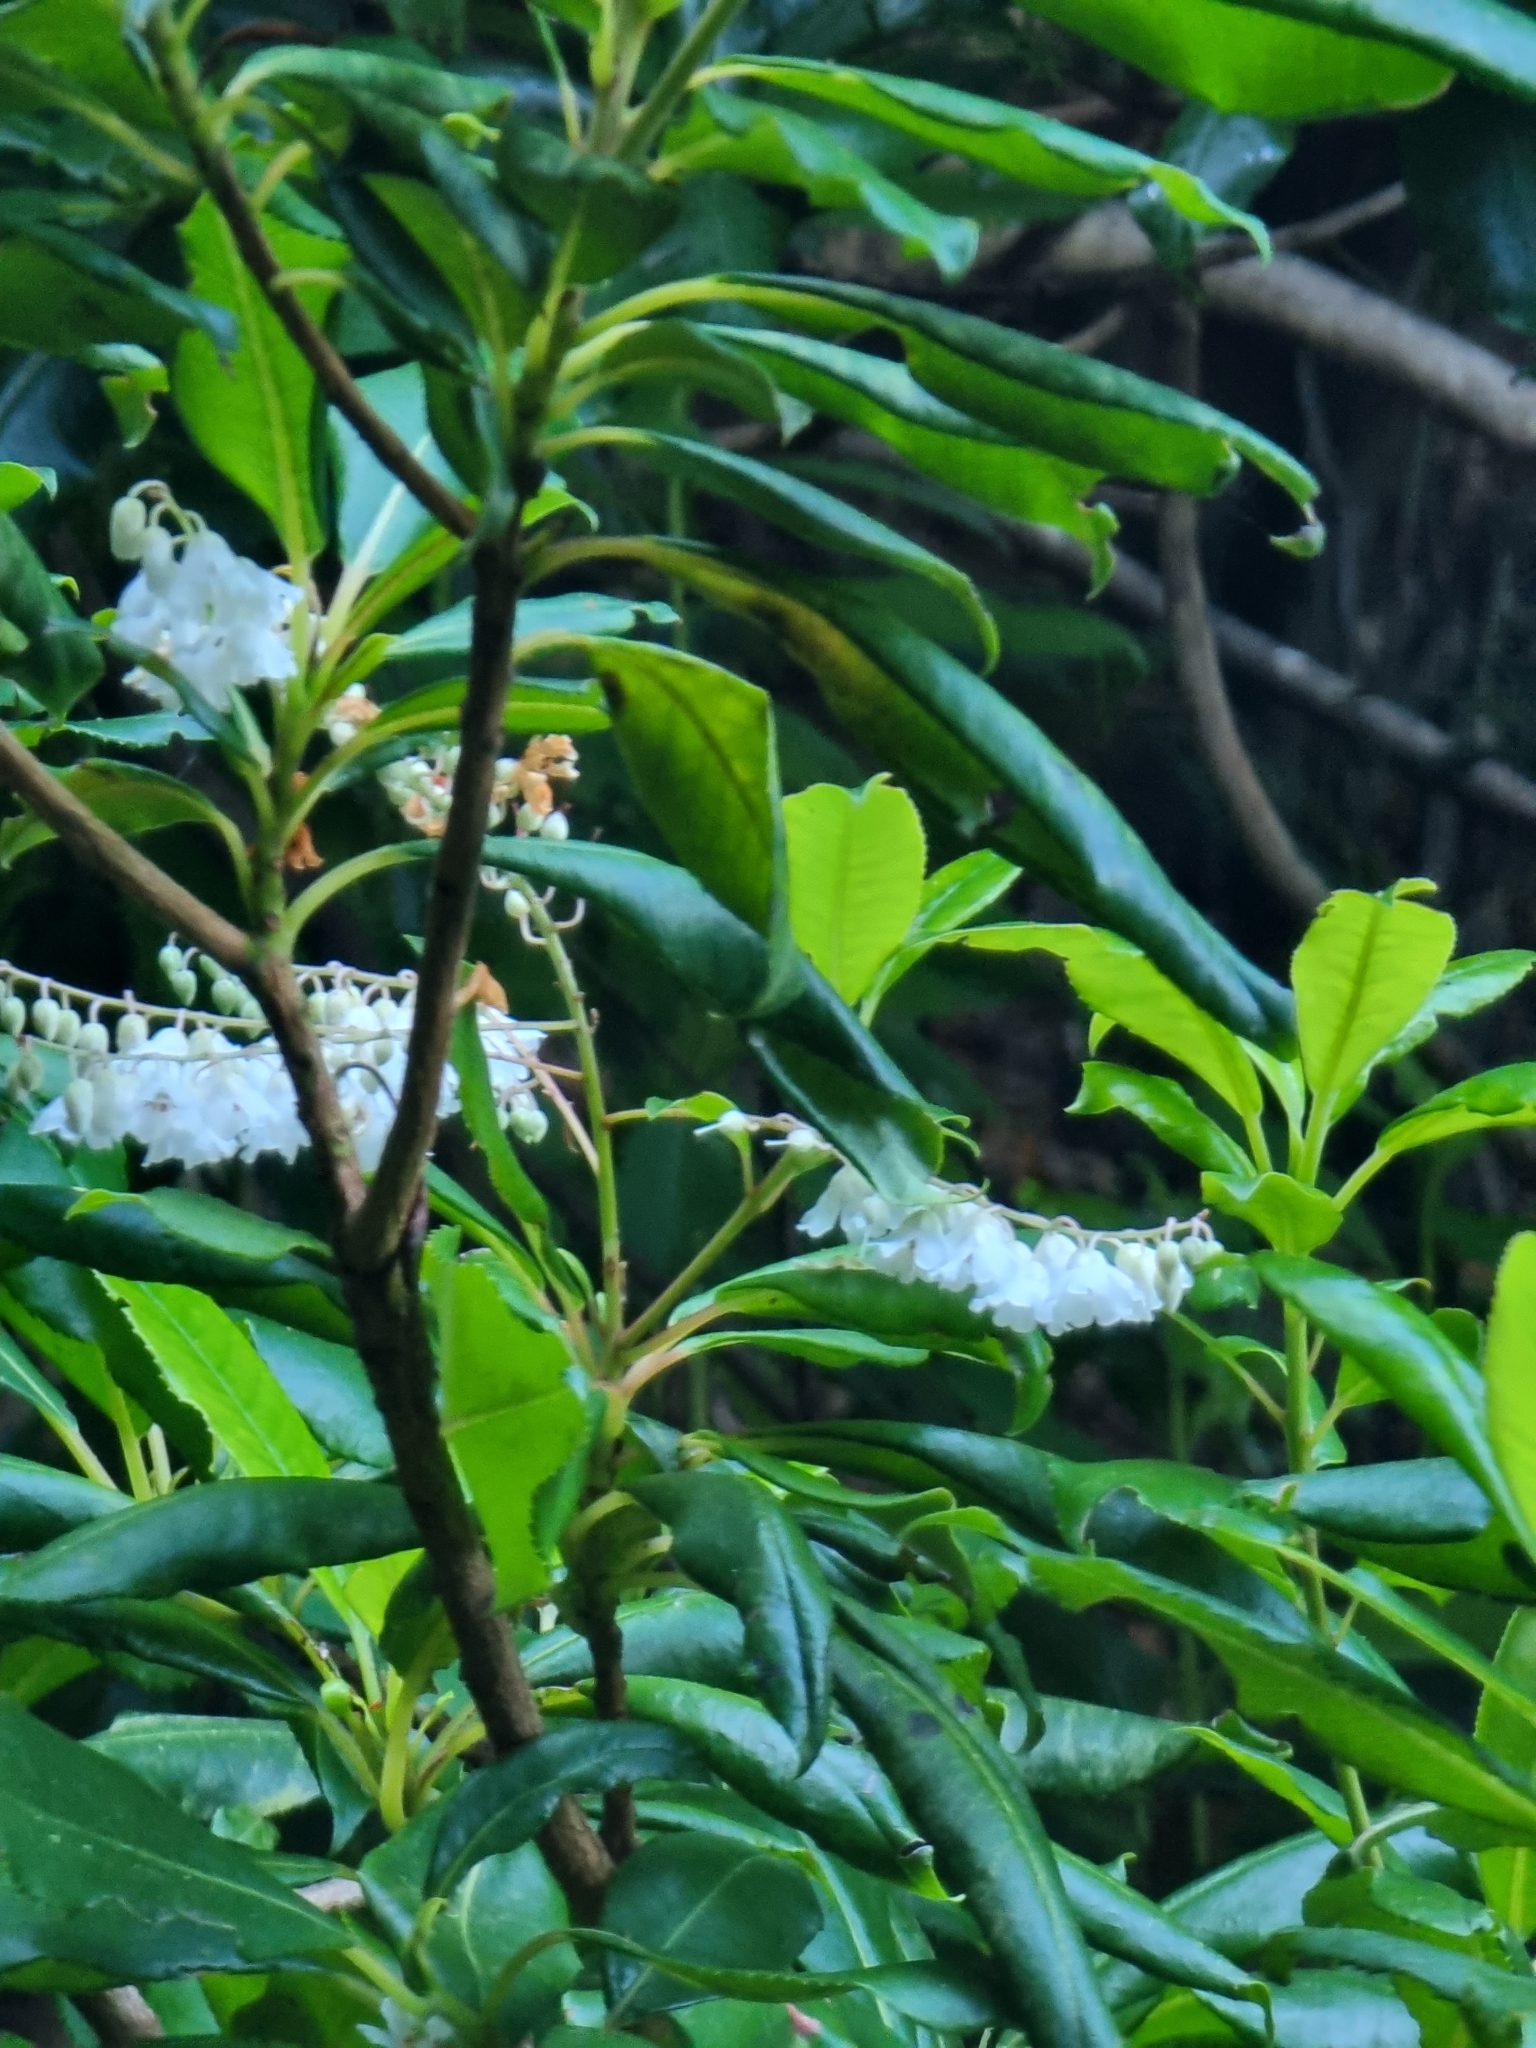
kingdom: Plantae
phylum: Tracheophyta
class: Magnoliopsida
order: Ericales
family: Clethraceae
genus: Clethra
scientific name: Clethra arborea
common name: Lily-of-the-valley-tree
